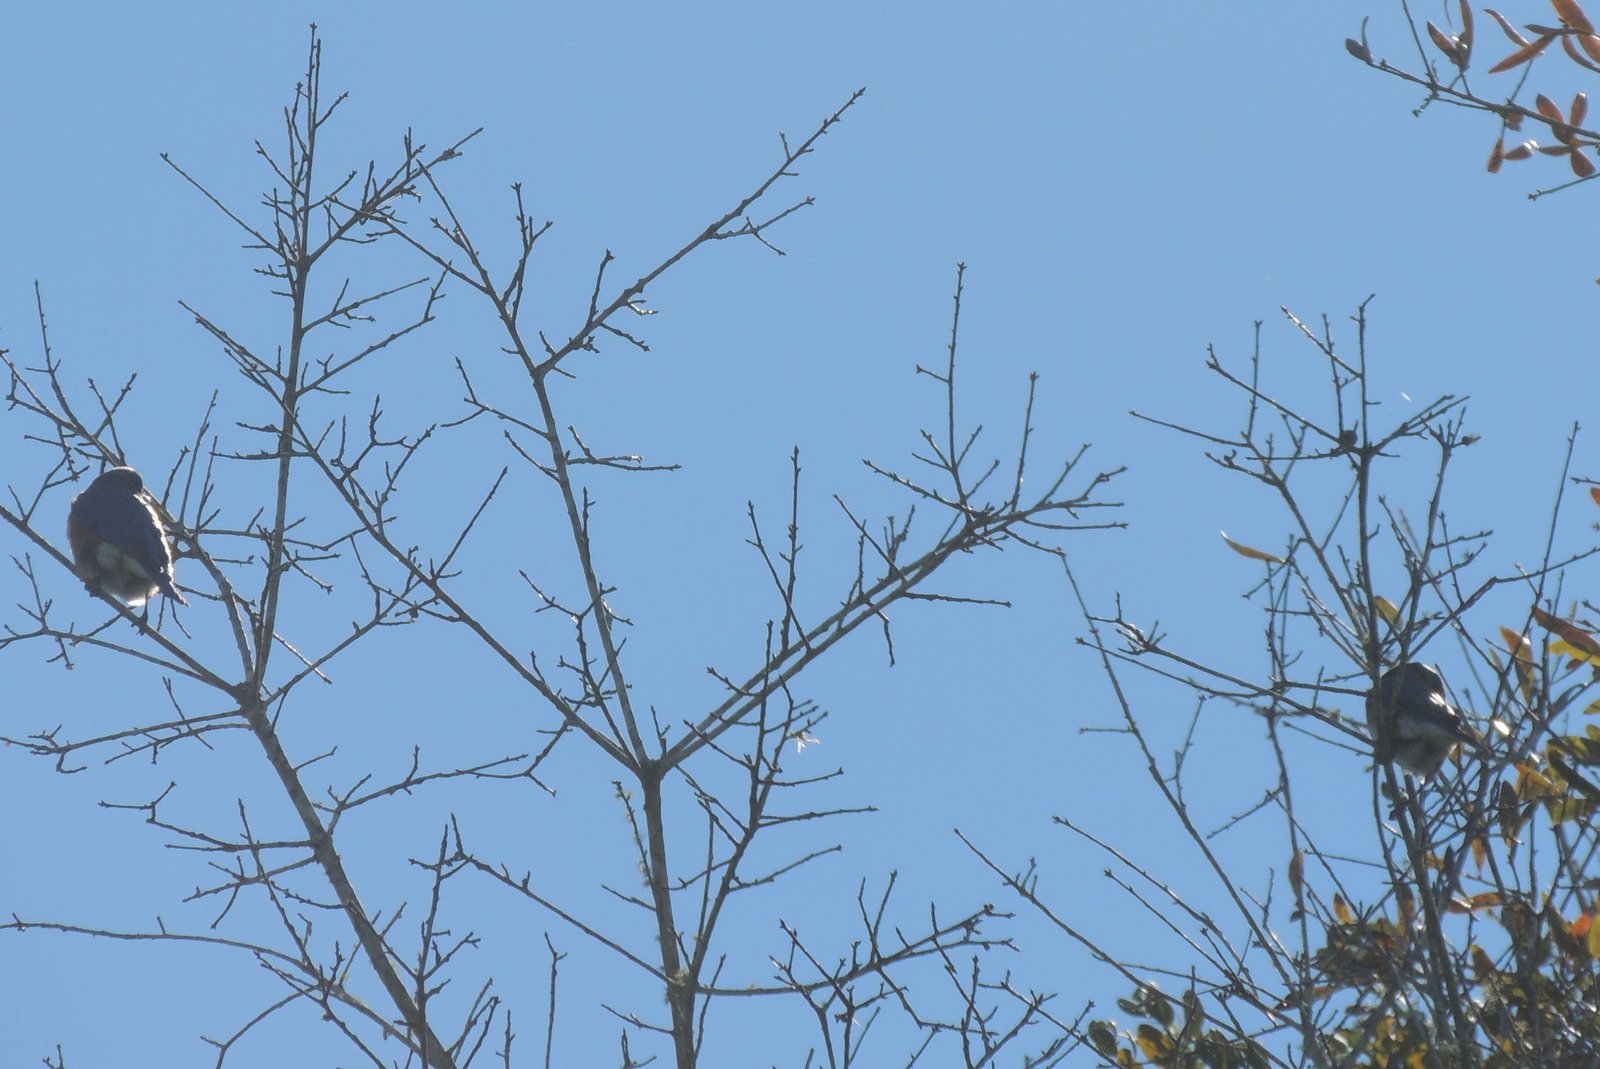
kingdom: Animalia
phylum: Chordata
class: Aves
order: Passeriformes
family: Turdidae
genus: Sialia
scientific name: Sialia sialis
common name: Eastern bluebird
